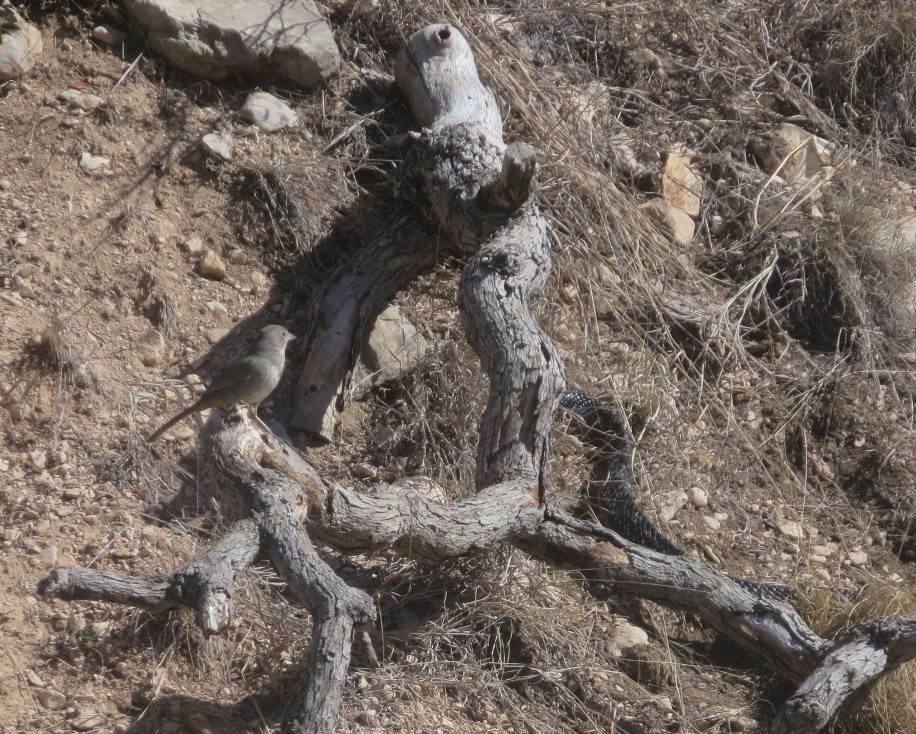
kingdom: Animalia
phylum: Chordata
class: Aves
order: Passeriformes
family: Passerellidae
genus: Melozone
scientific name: Melozone fusca
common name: Canyon towhee
